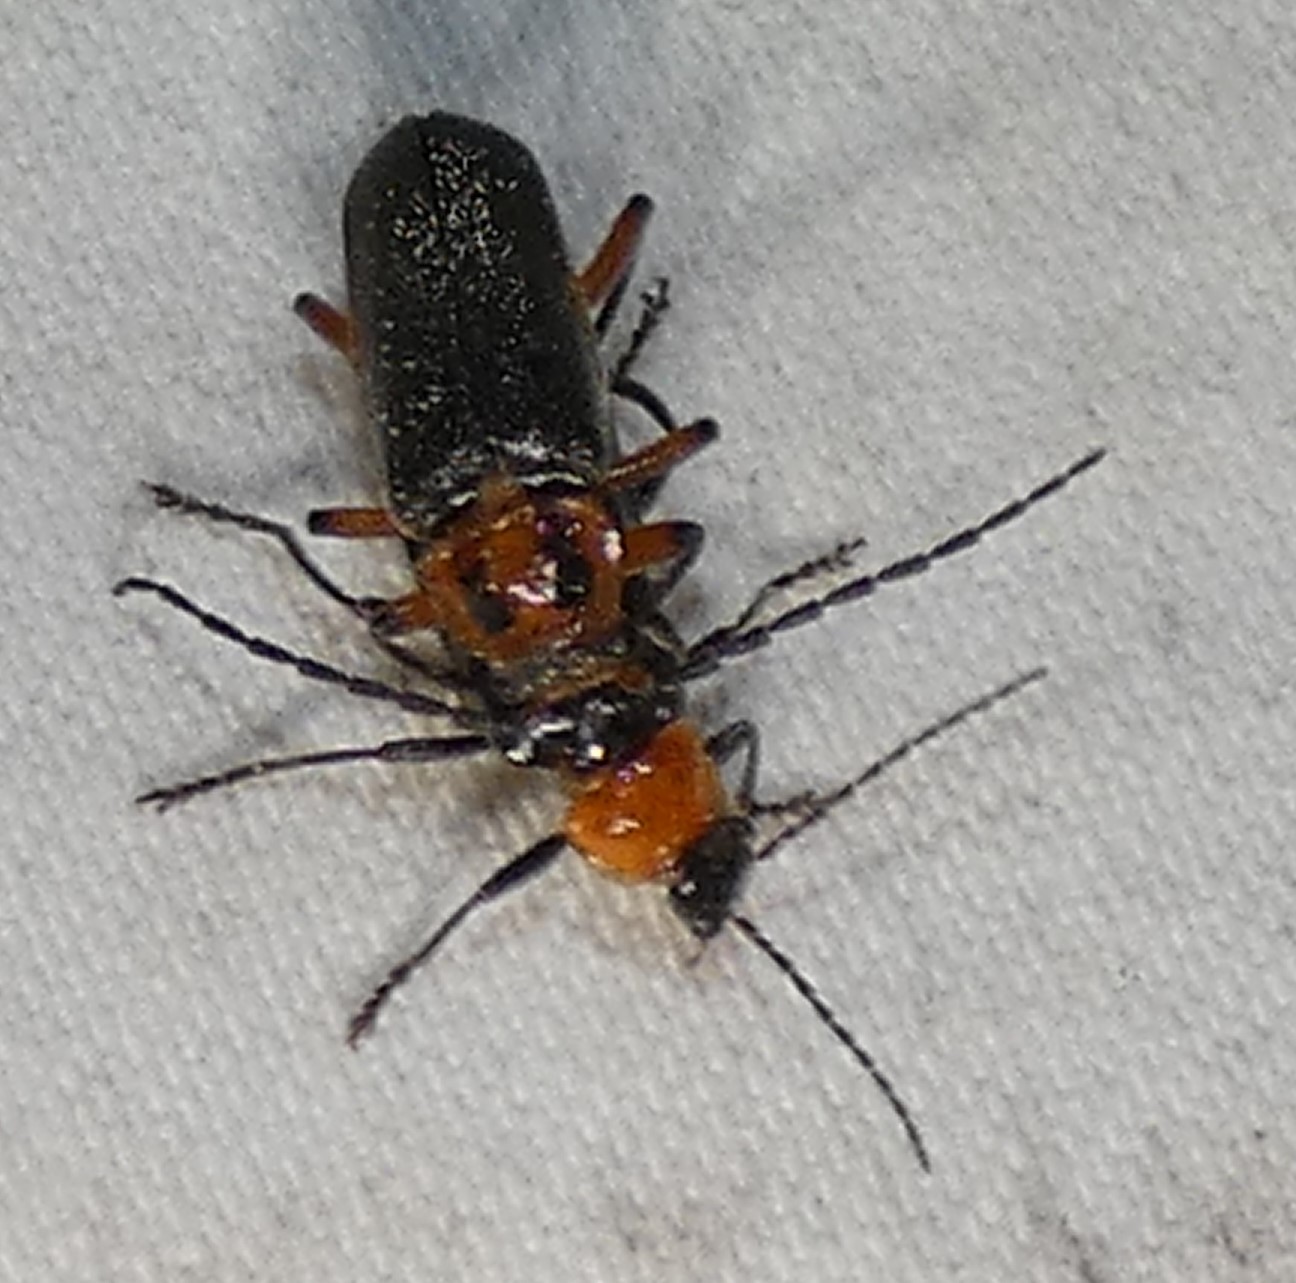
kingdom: Animalia
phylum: Arthropoda
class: Insecta
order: Coleoptera
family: Cantharidae
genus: Atalantycha
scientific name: Atalantycha bilineata
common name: Two-lined leatherwing
